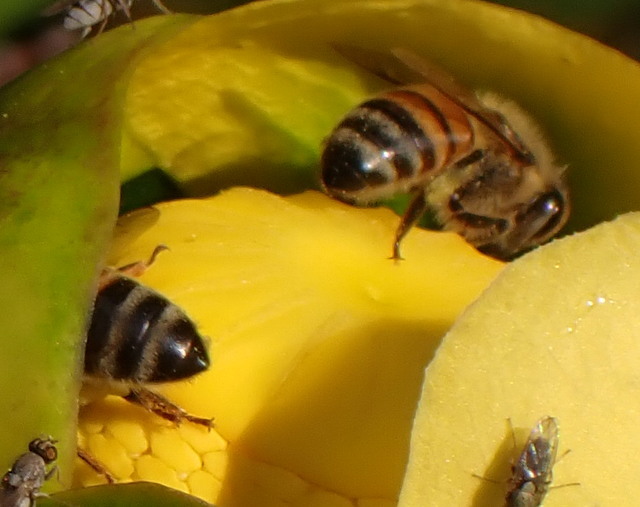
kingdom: Animalia
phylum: Arthropoda
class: Insecta
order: Hymenoptera
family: Apidae
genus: Apis
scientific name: Apis mellifera
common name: Honey bee
